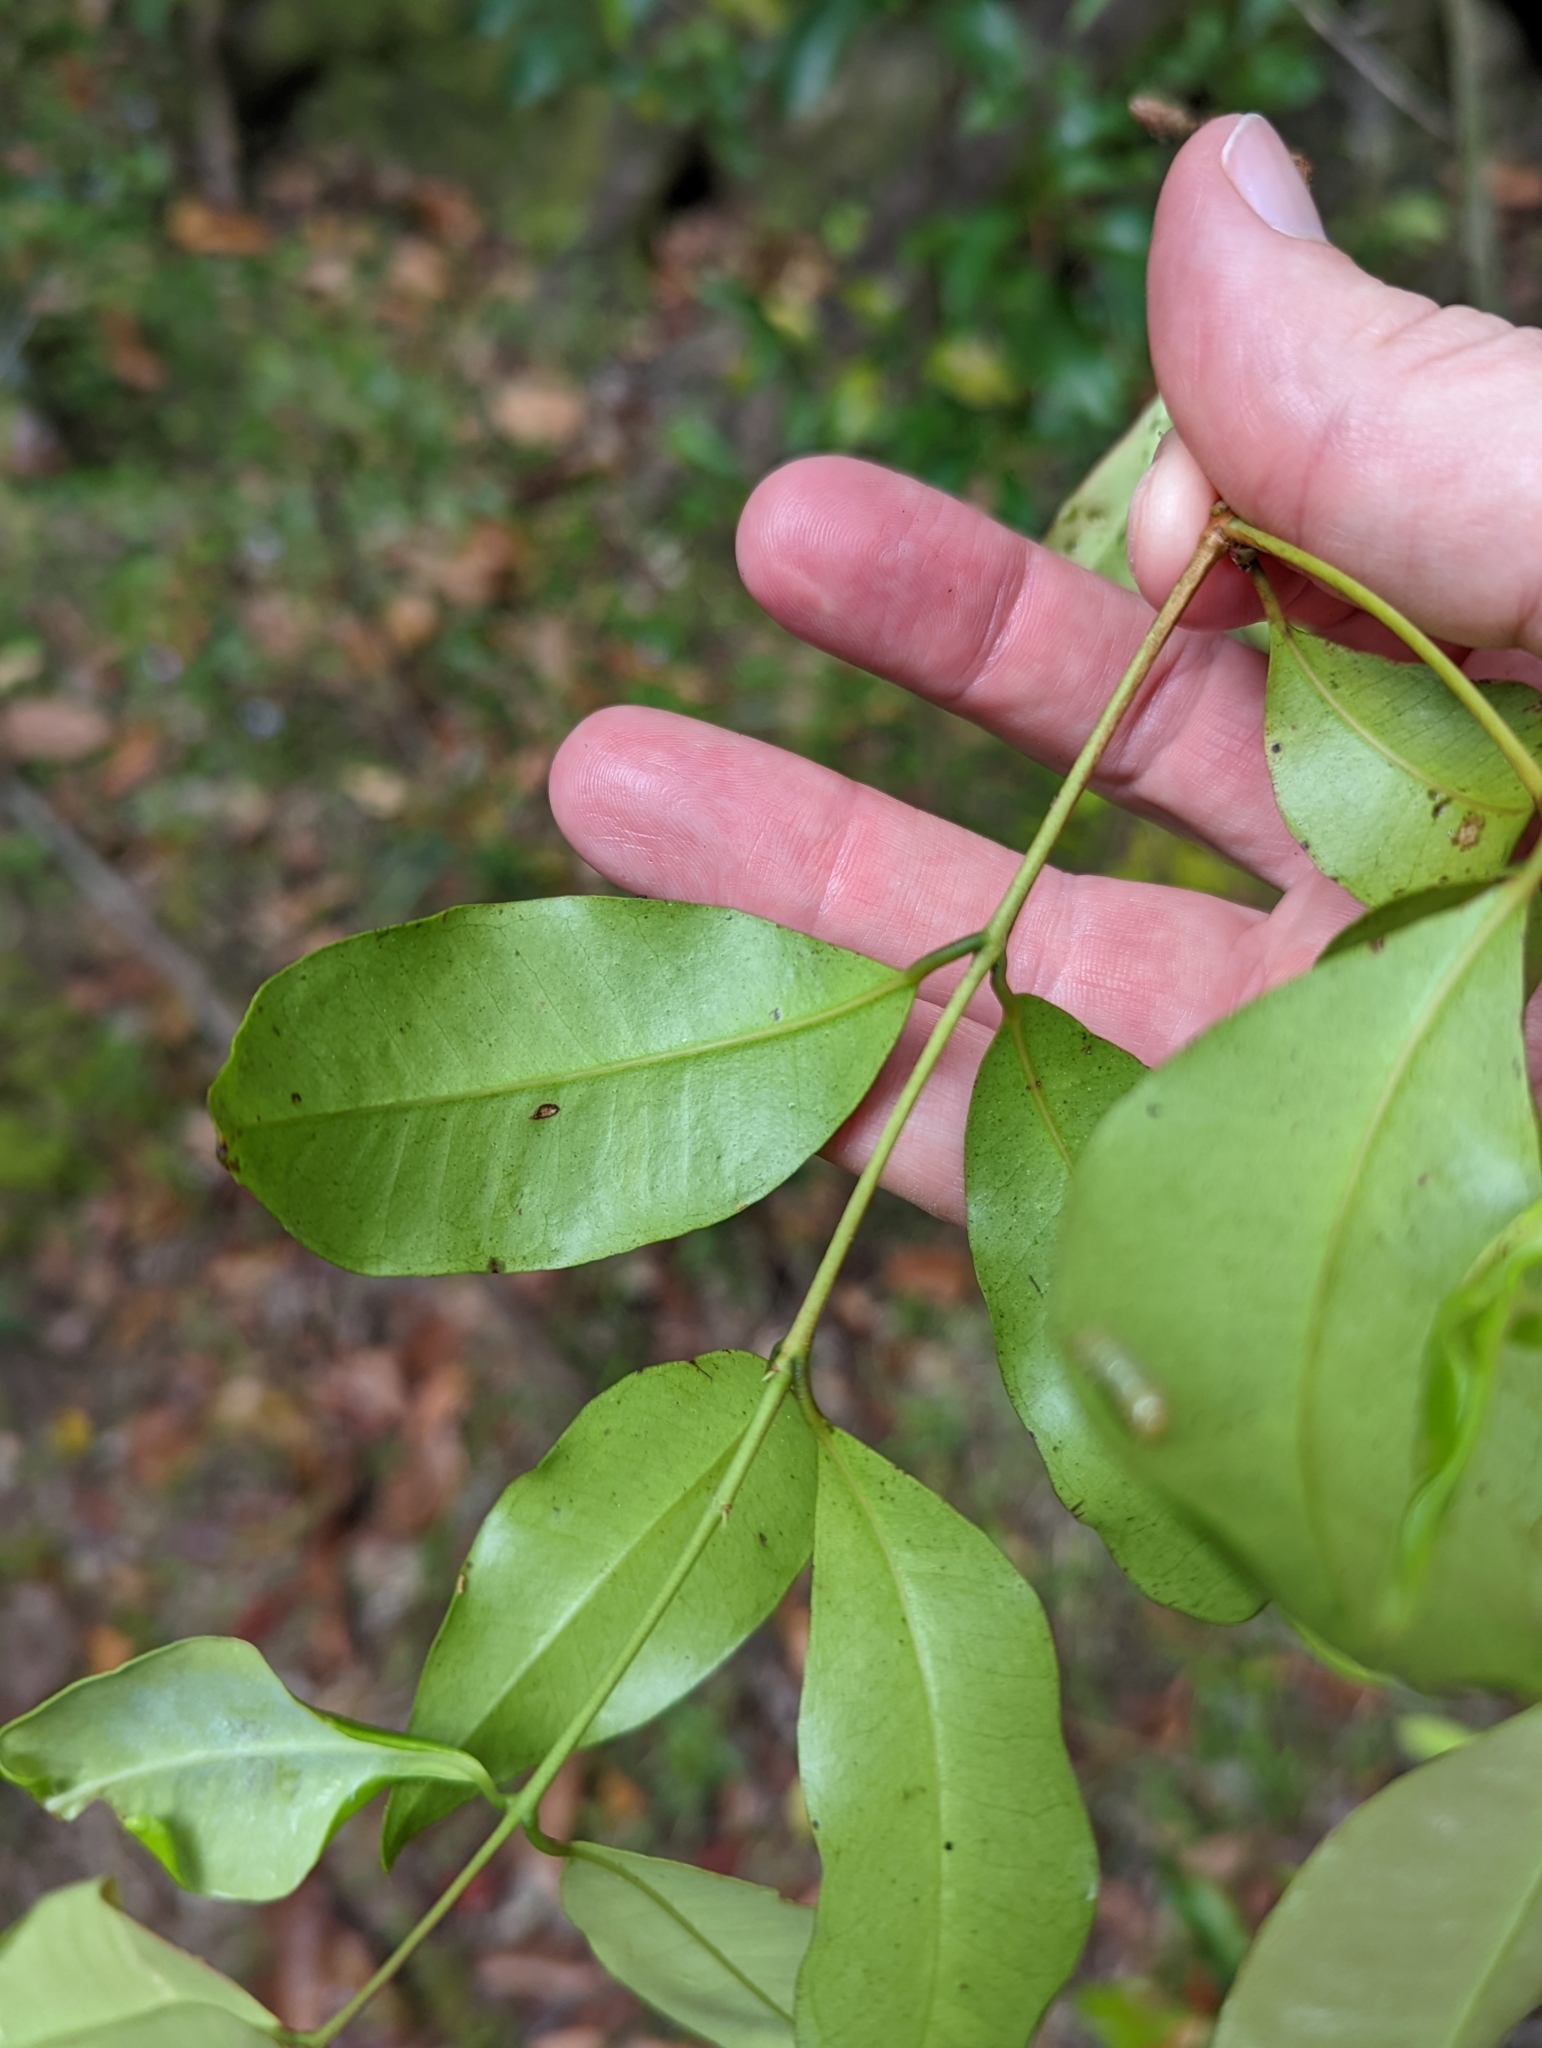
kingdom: Plantae
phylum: Tracheophyta
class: Magnoliopsida
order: Myrtales
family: Myrtaceae
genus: Syzygium
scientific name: Syzygium oleosum
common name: Oily satin-ash
